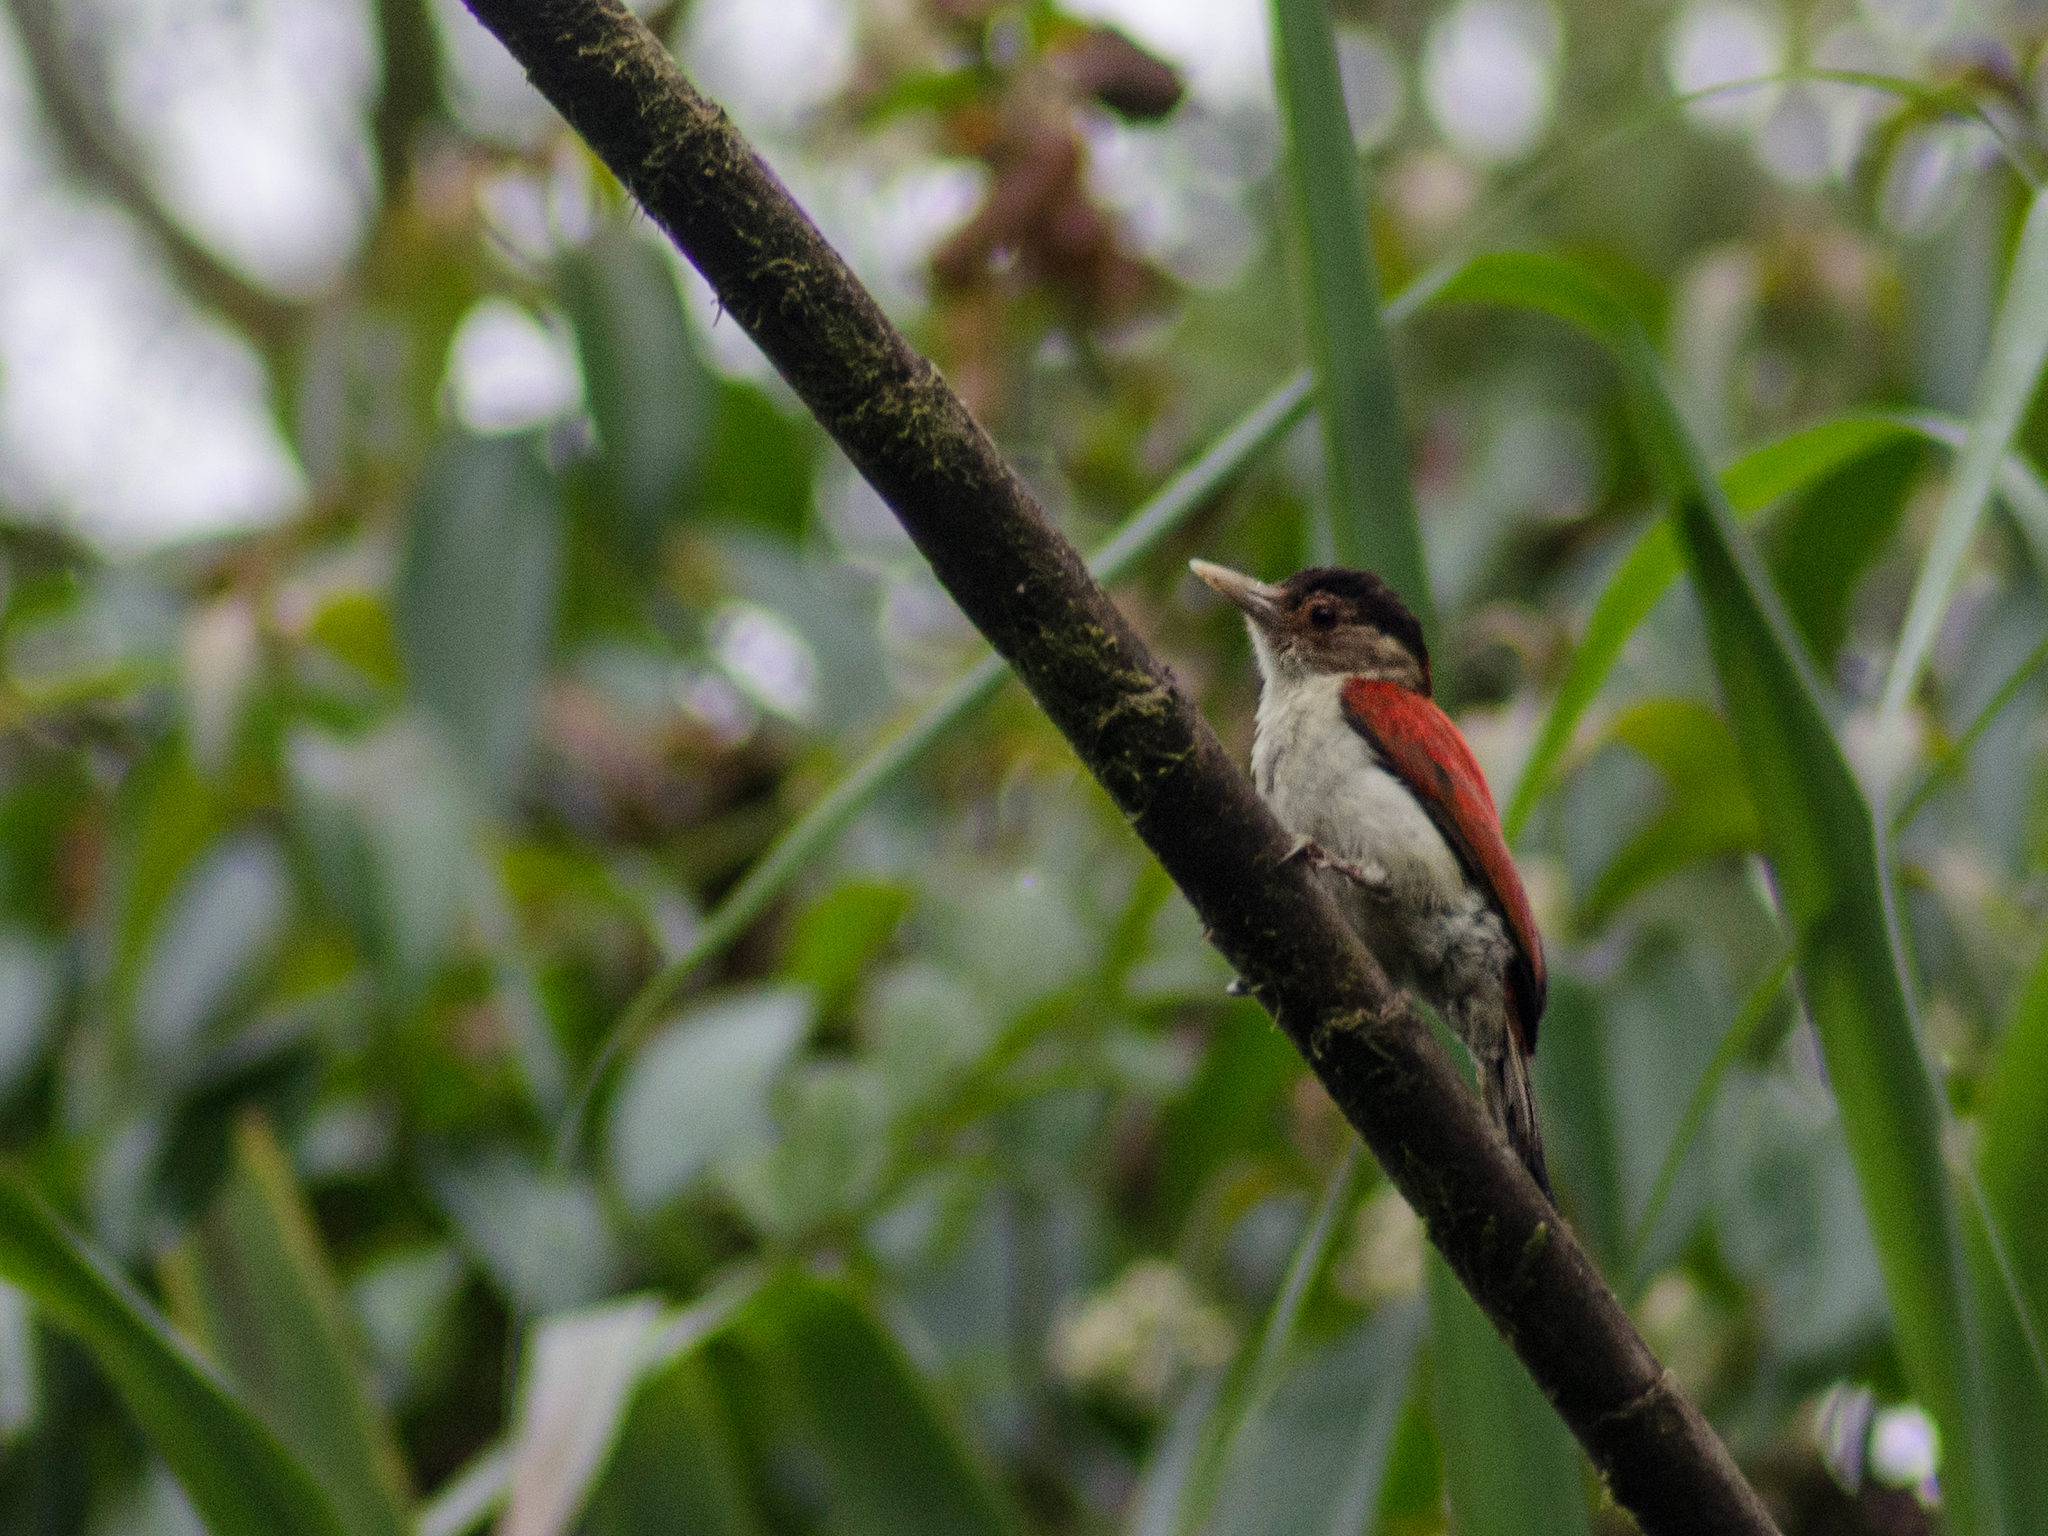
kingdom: Animalia
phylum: Chordata
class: Aves
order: Piciformes
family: Picidae
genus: Veniliornis
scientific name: Veniliornis callonotus
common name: Scarlet-backed woodpecker
